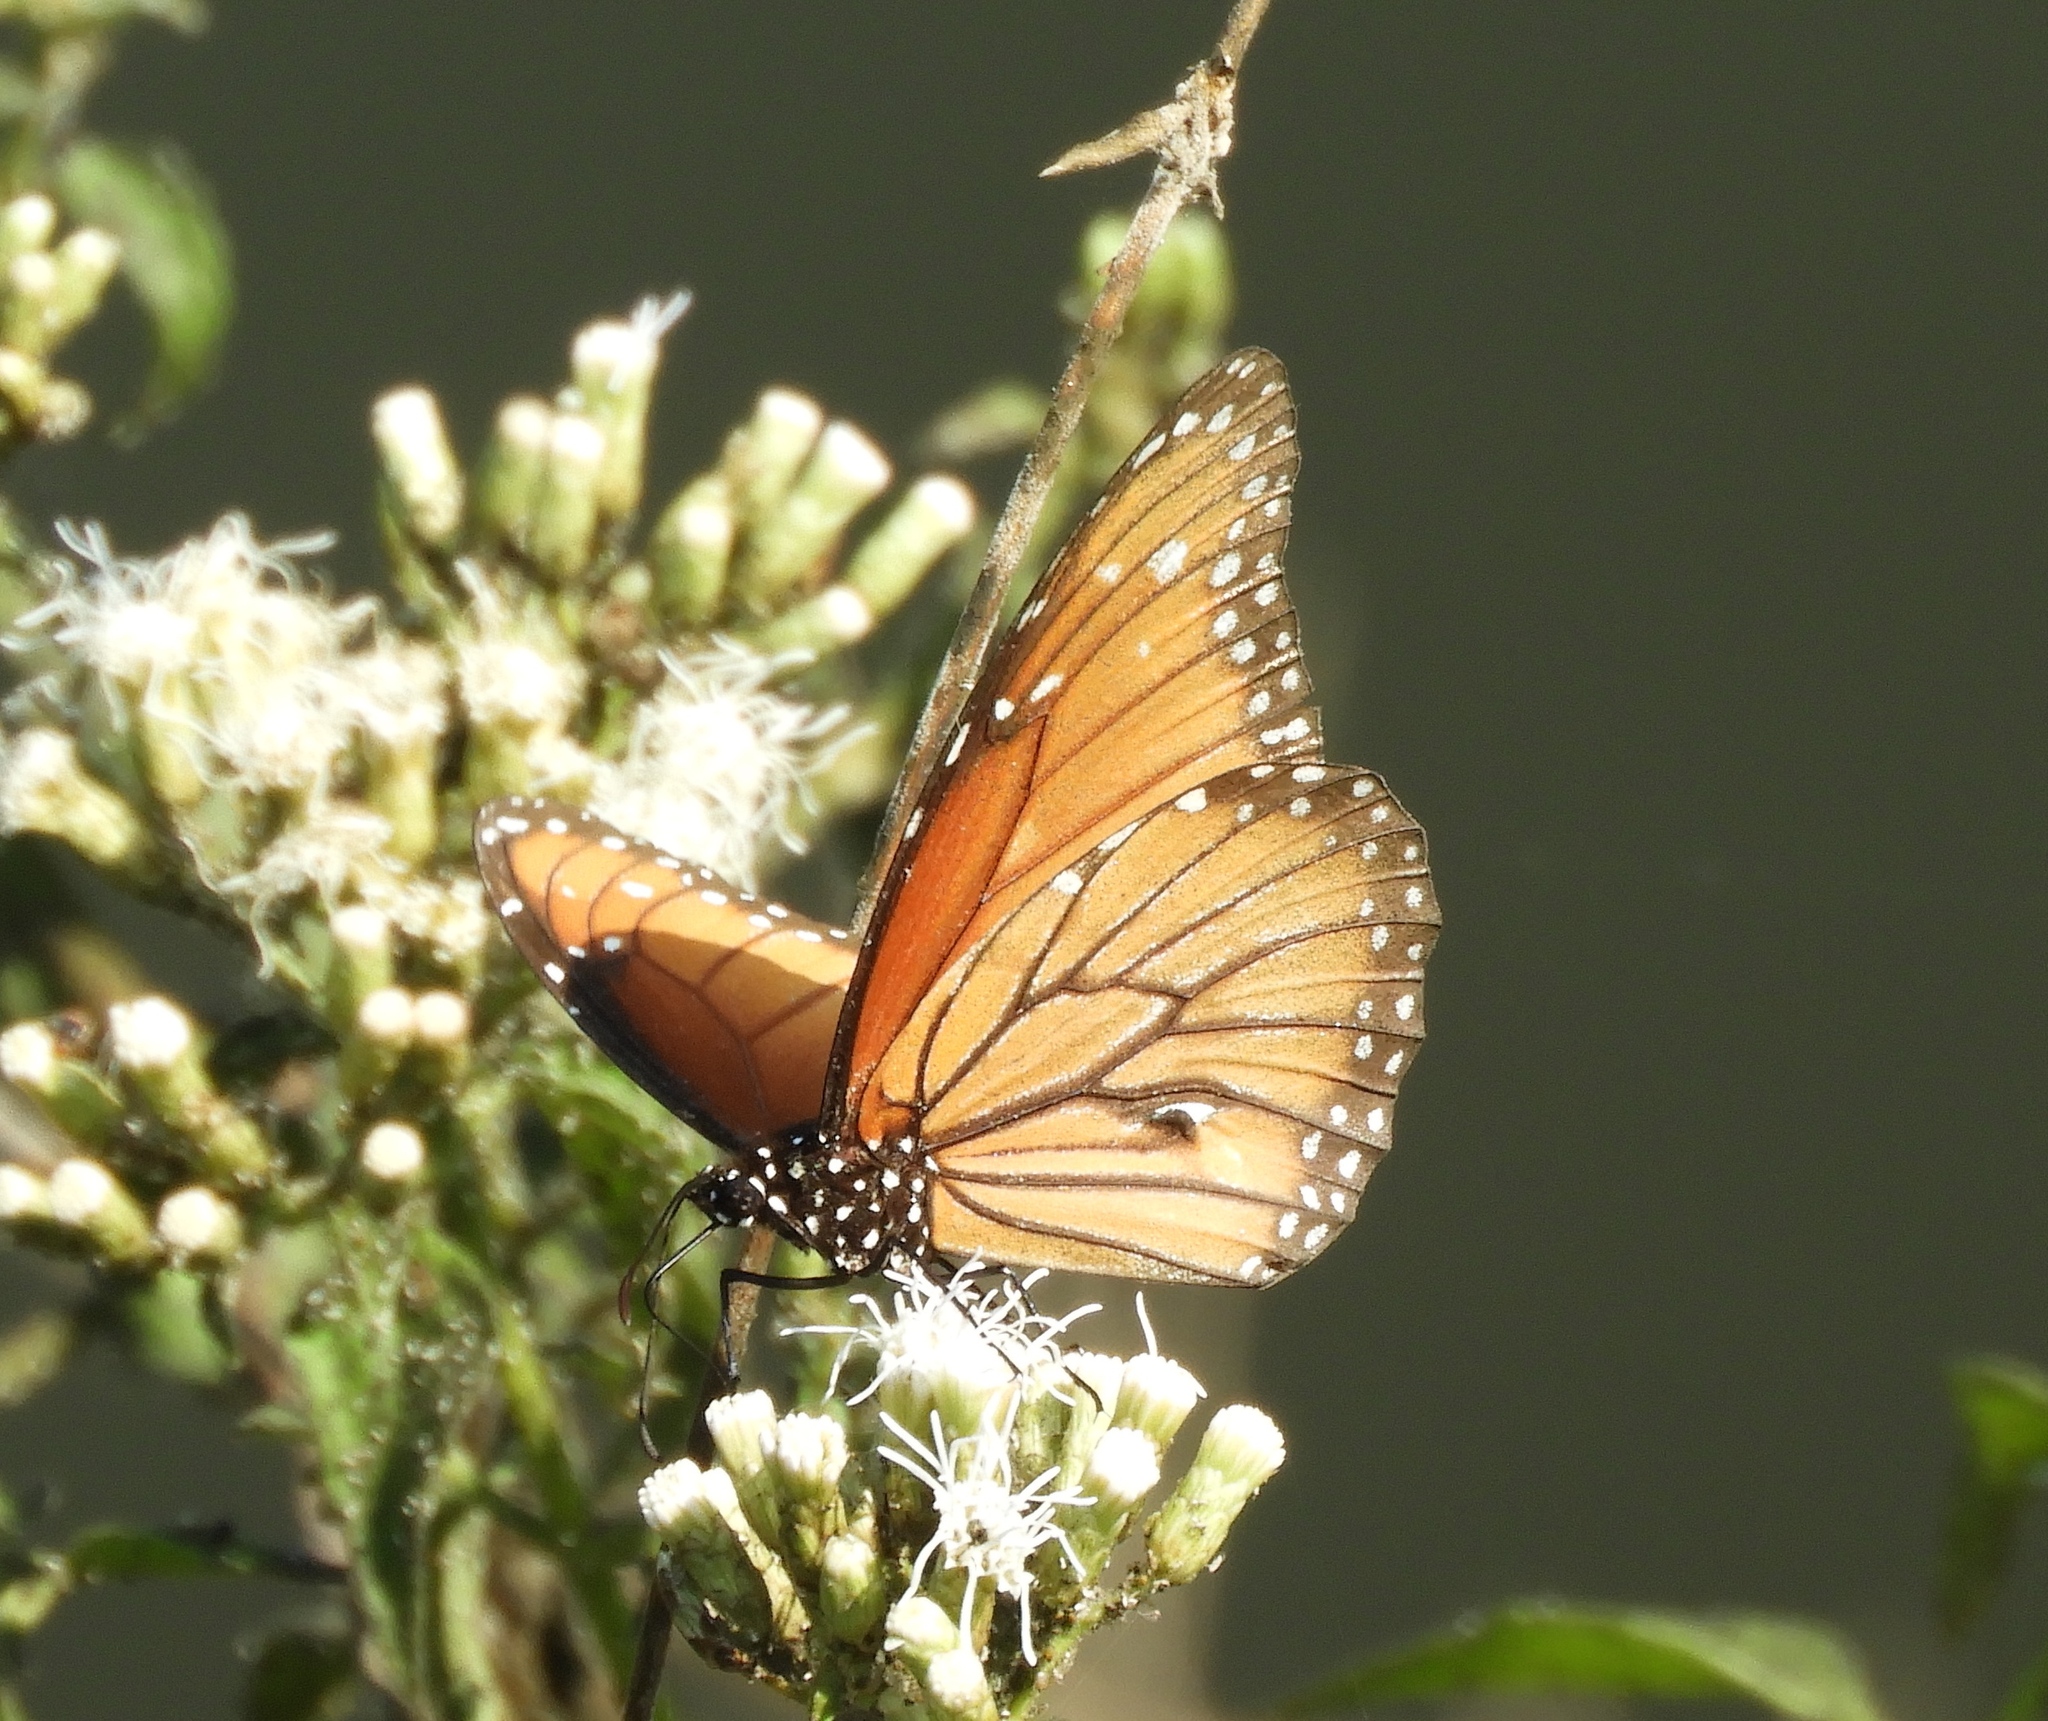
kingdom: Animalia
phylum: Arthropoda
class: Insecta
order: Lepidoptera
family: Nymphalidae
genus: Danaus
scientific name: Danaus eresimus
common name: Soldier
